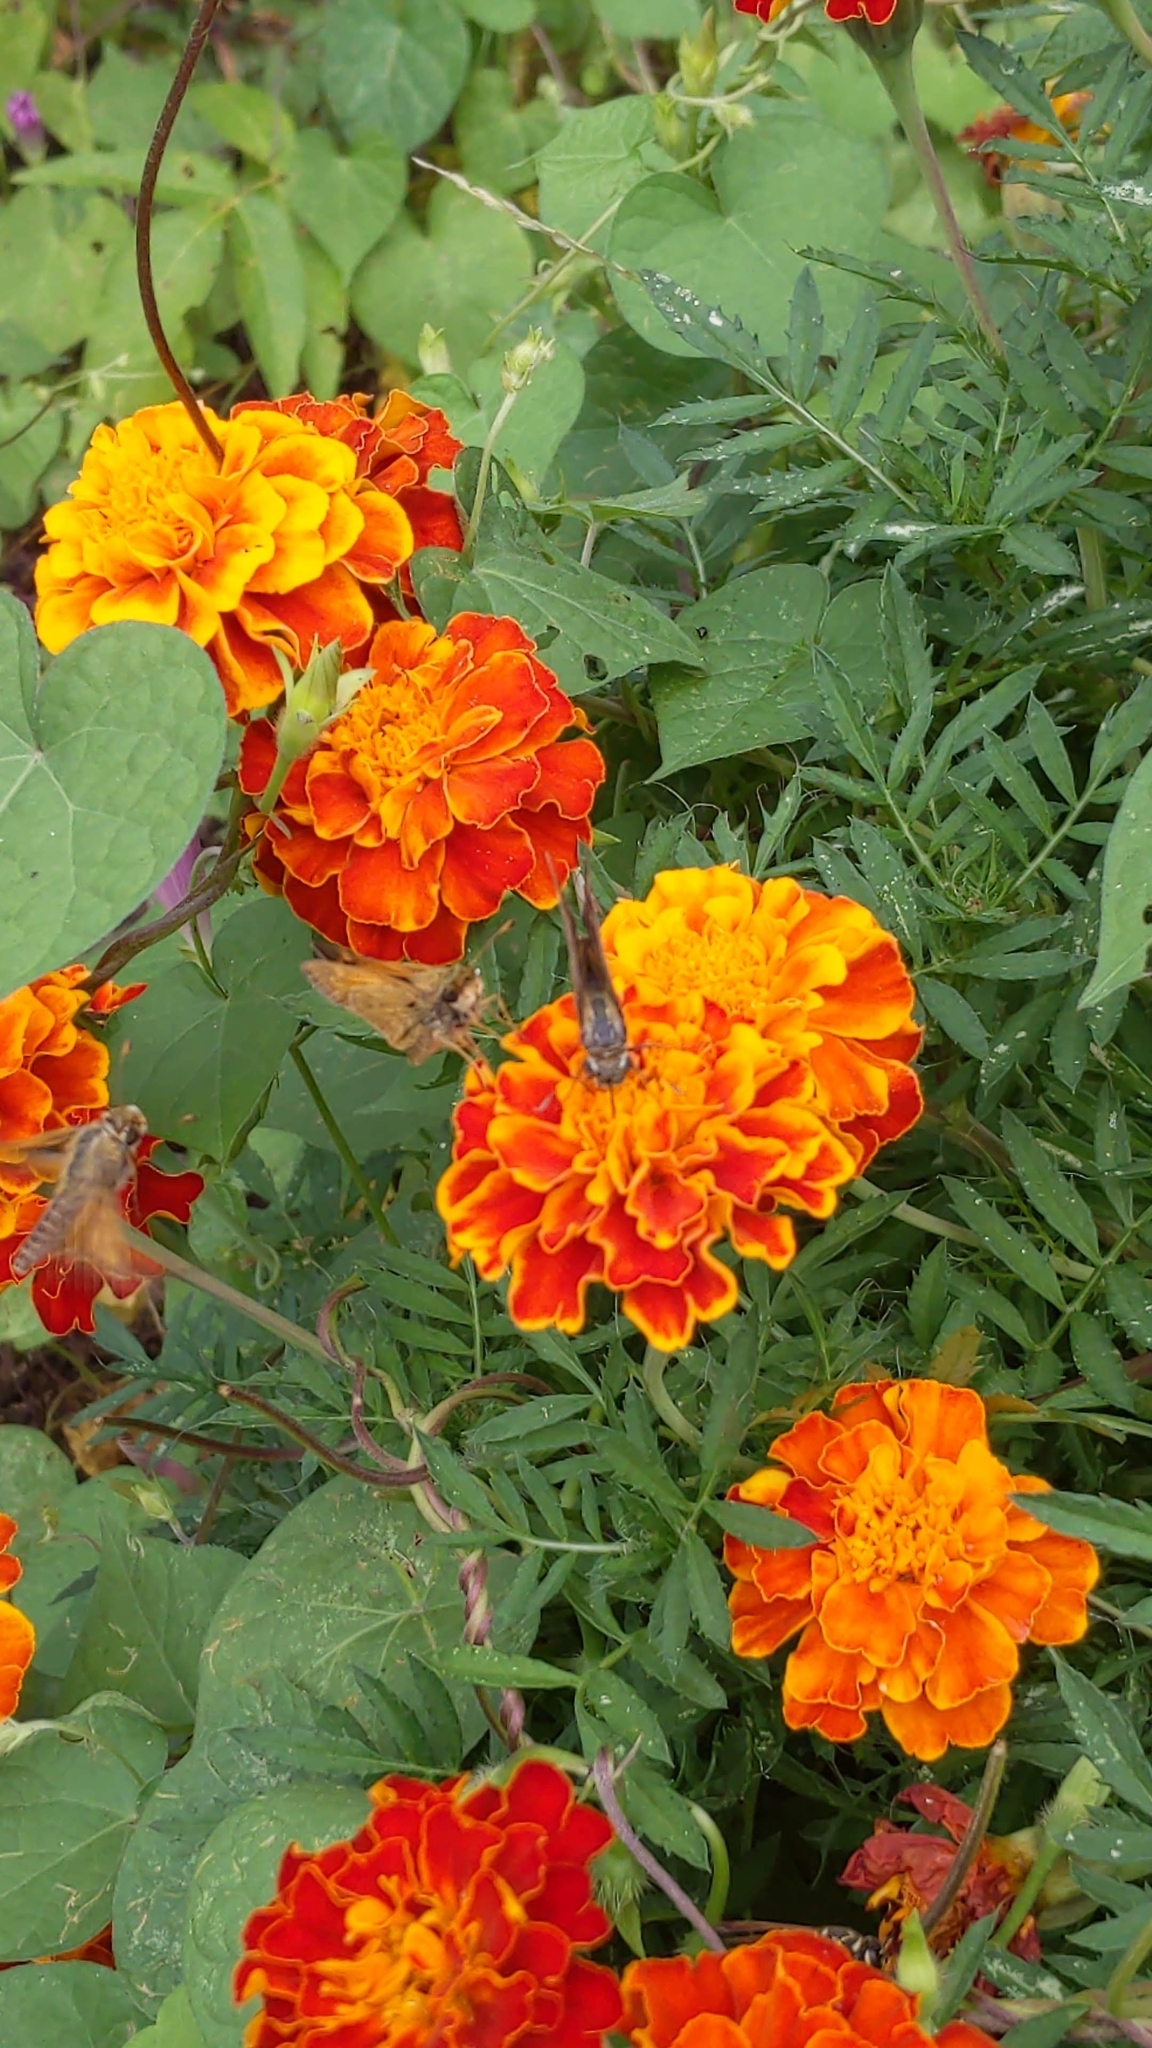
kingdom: Animalia
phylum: Arthropoda
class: Insecta
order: Lepidoptera
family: Hesperiidae
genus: Atalopedes
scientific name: Atalopedes
